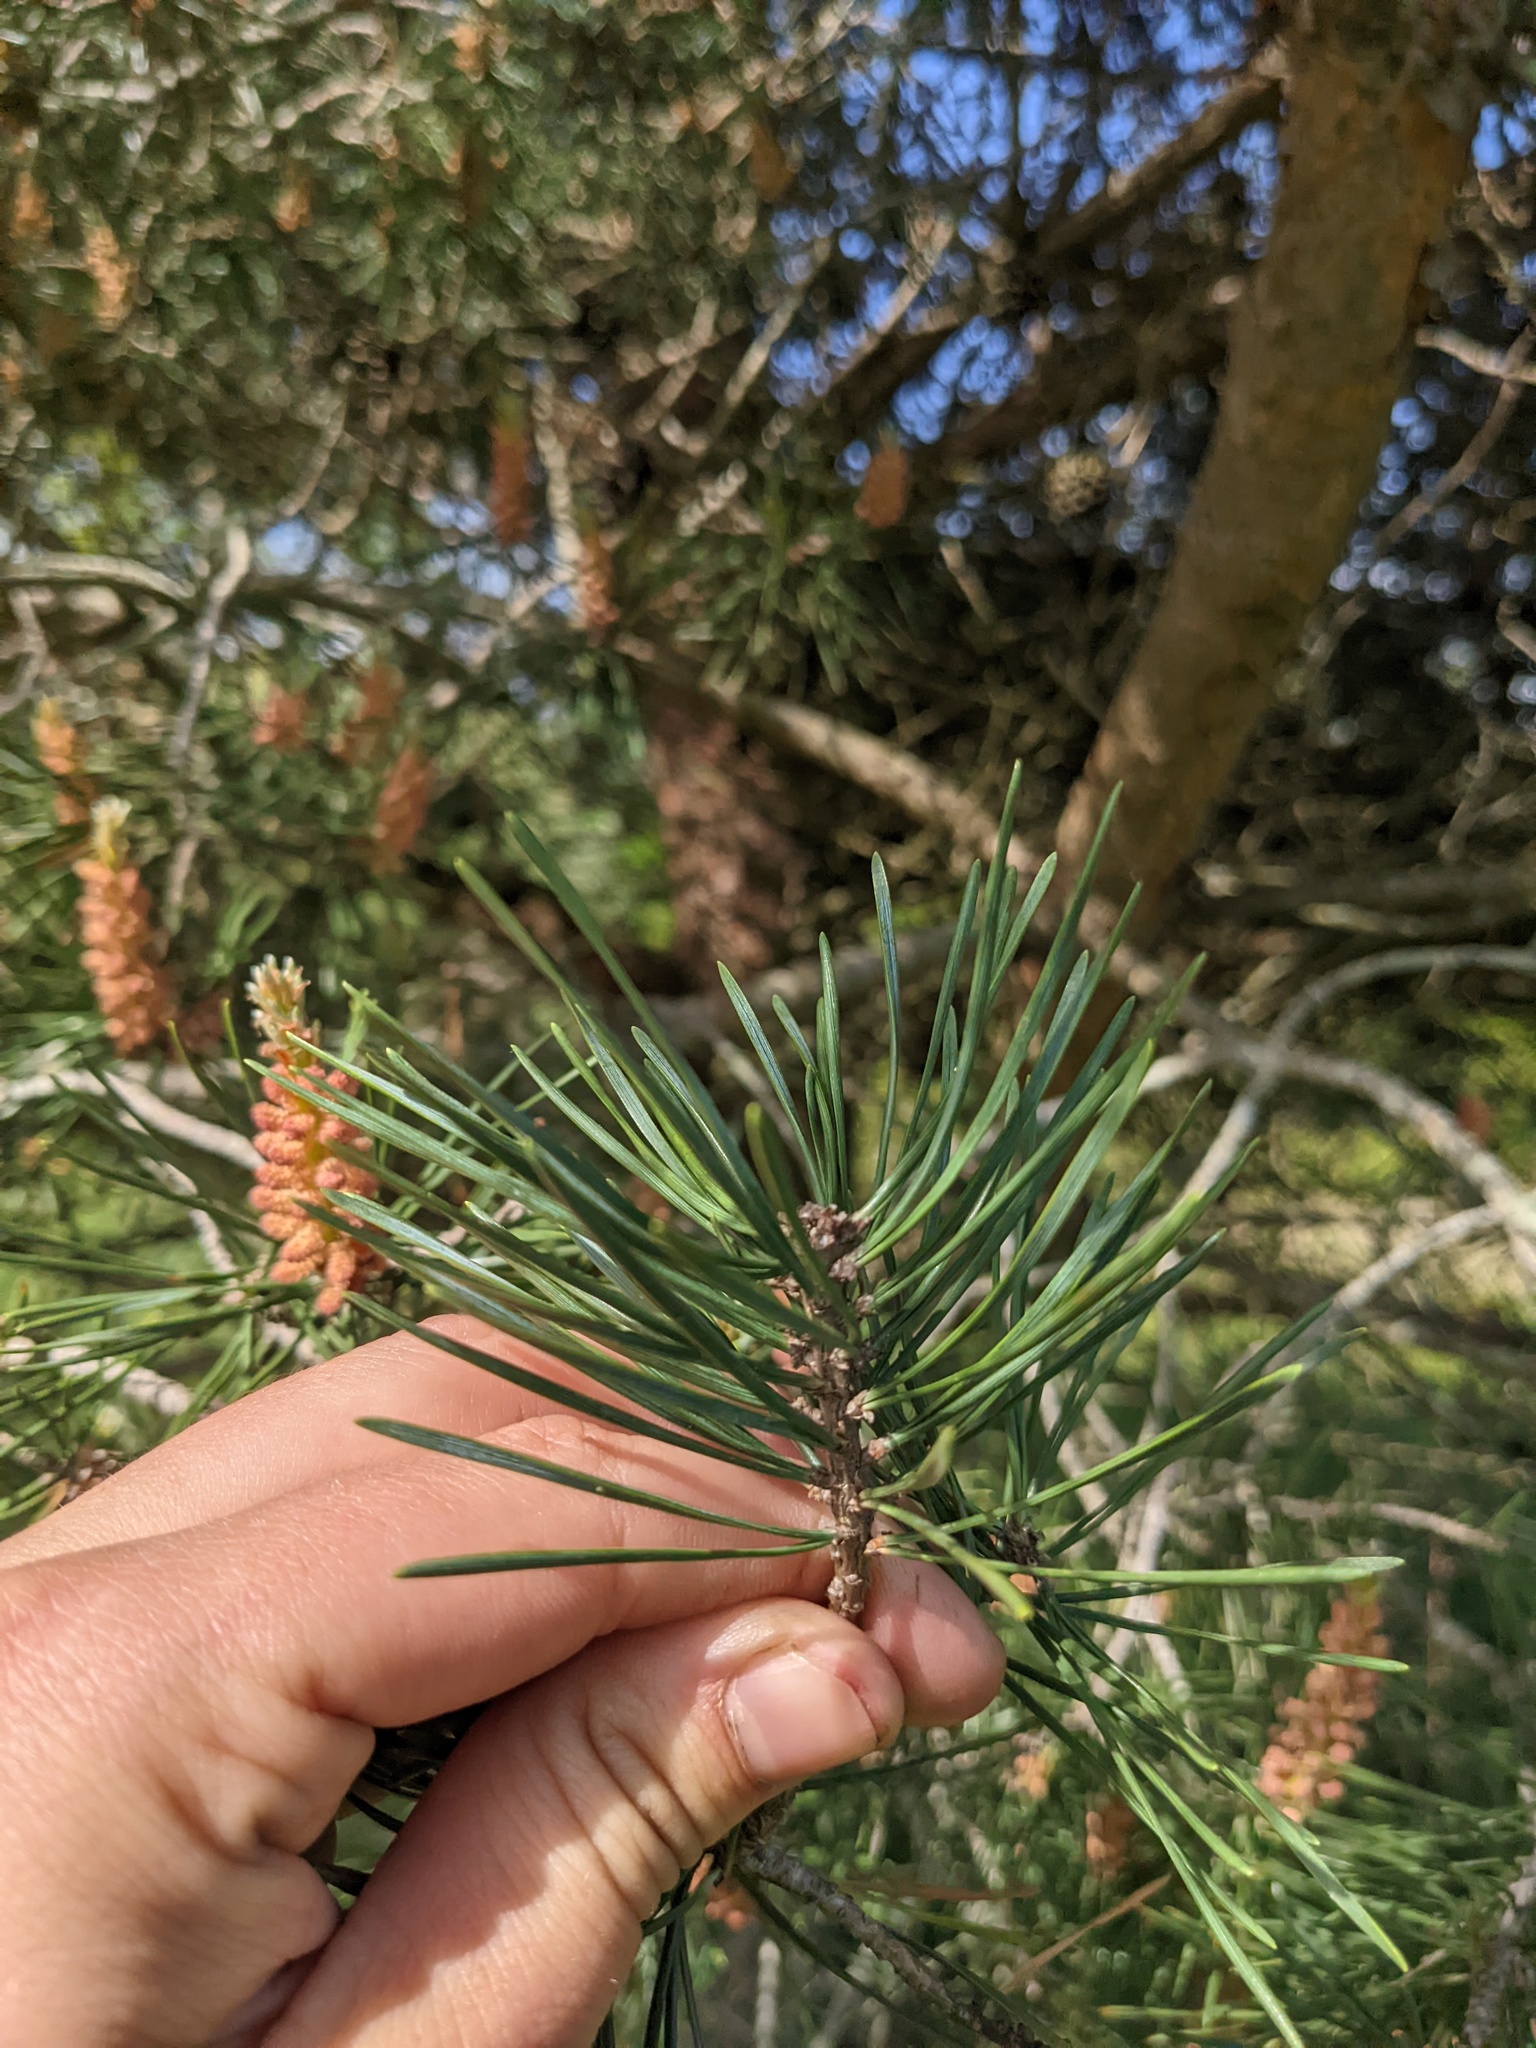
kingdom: Plantae
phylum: Tracheophyta
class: Pinopsida
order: Pinales
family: Pinaceae
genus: Pinus
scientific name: Pinus sylvestris
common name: Scots pine
